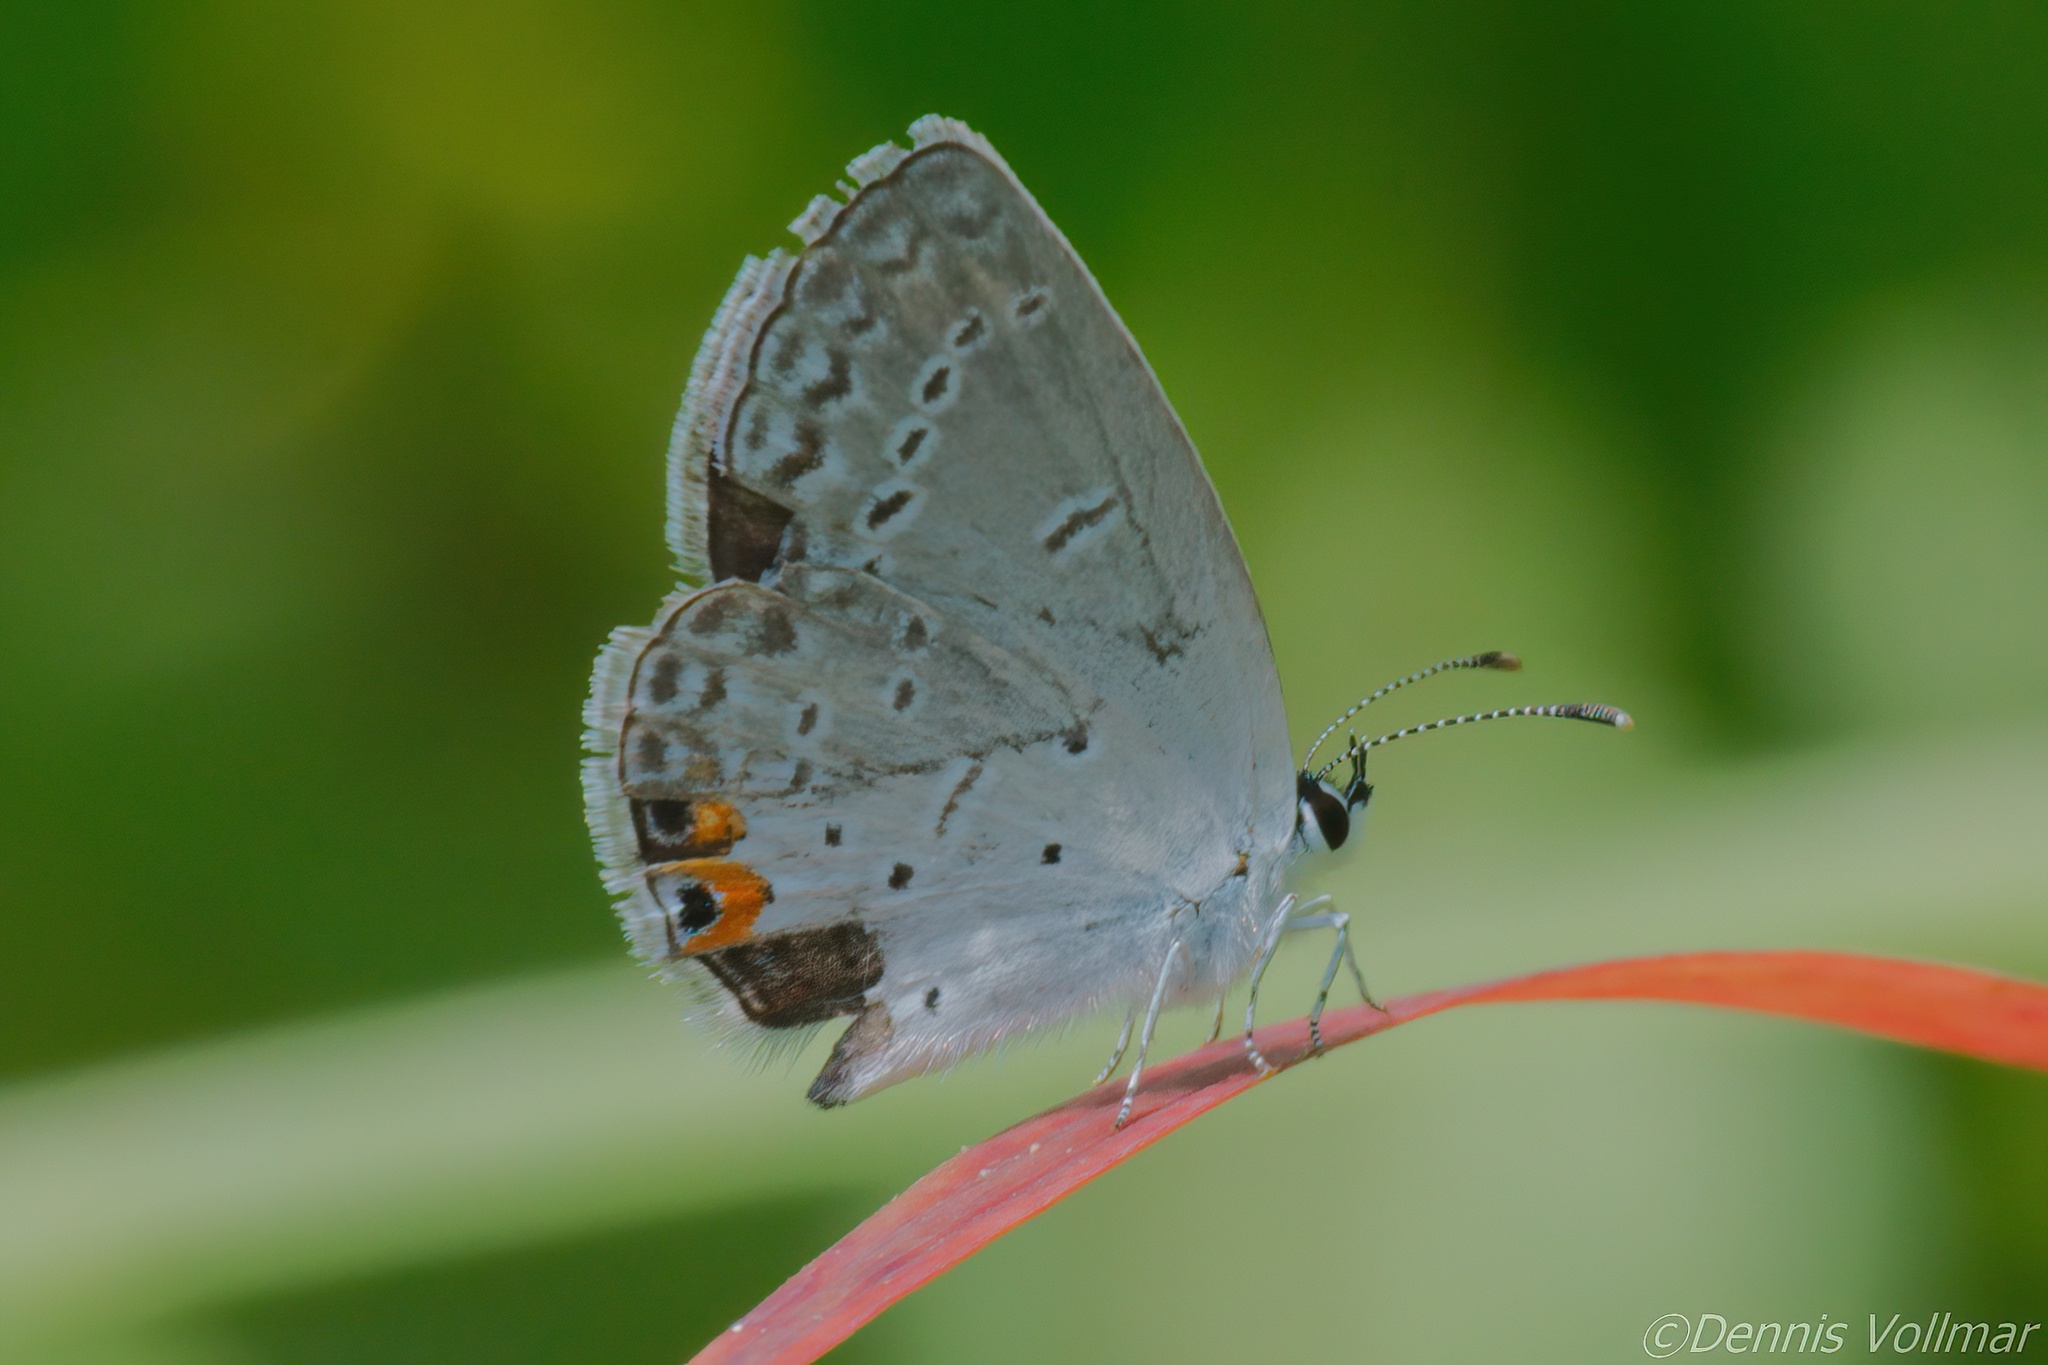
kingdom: Animalia
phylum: Arthropoda
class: Insecta
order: Lepidoptera
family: Lycaenidae
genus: Elkalyce
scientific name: Elkalyce comyntas
